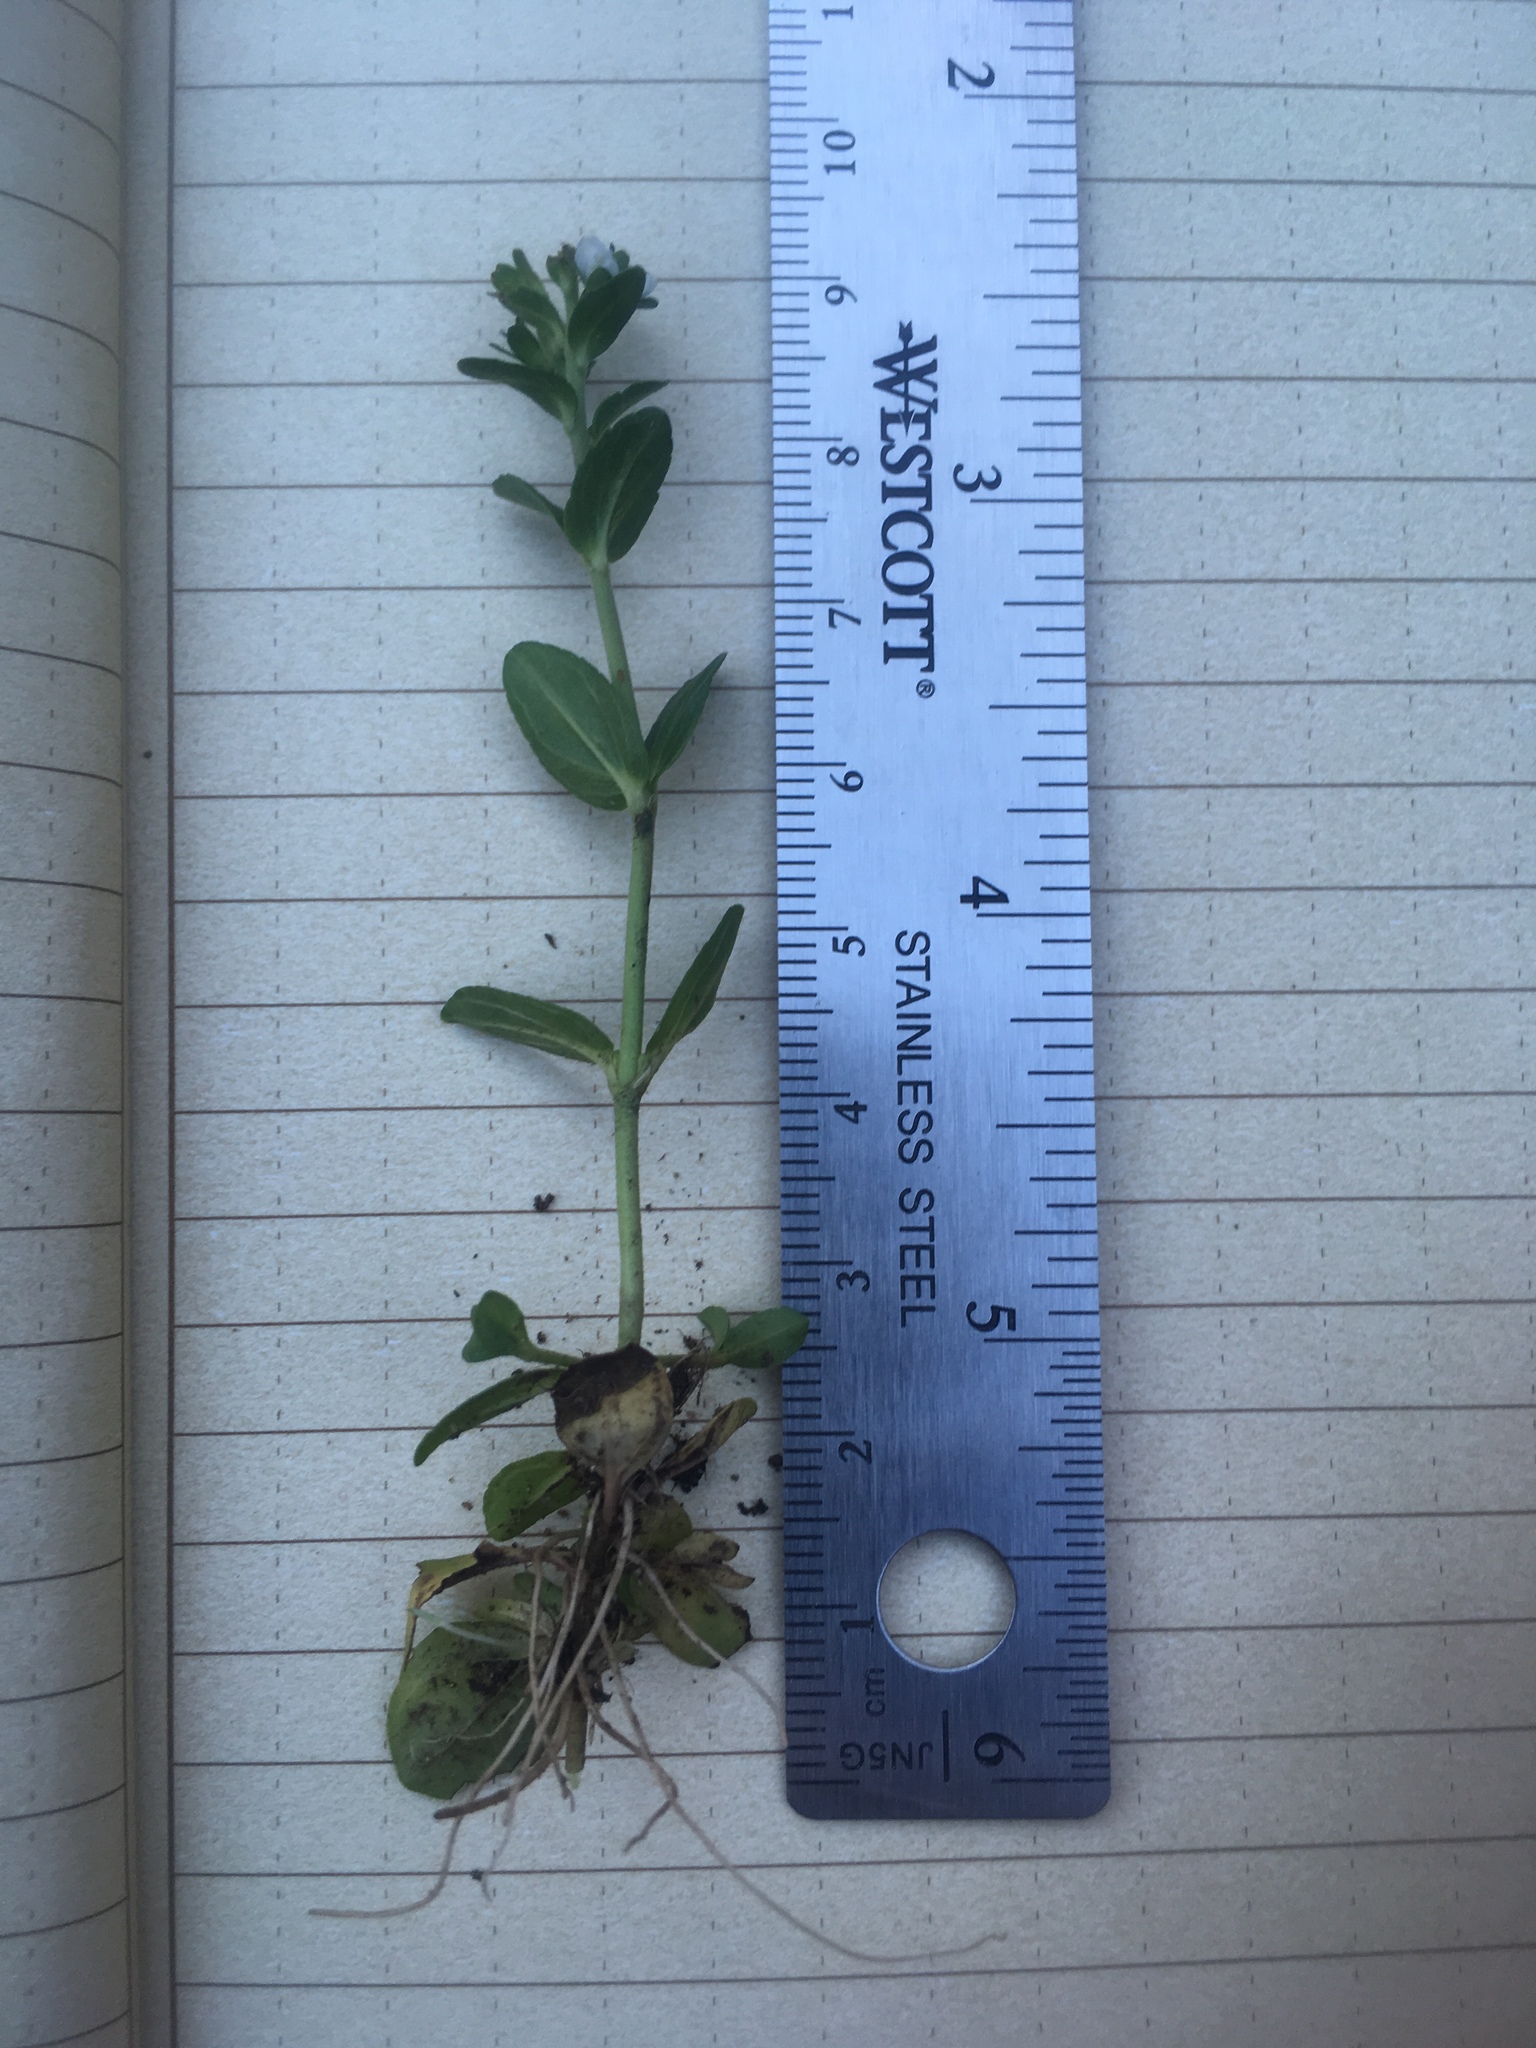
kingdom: Plantae
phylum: Tracheophyta
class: Magnoliopsida
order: Lamiales
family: Plantaginaceae
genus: Veronica
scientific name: Veronica serpyllifolia
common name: Thyme-leaved speedwell
